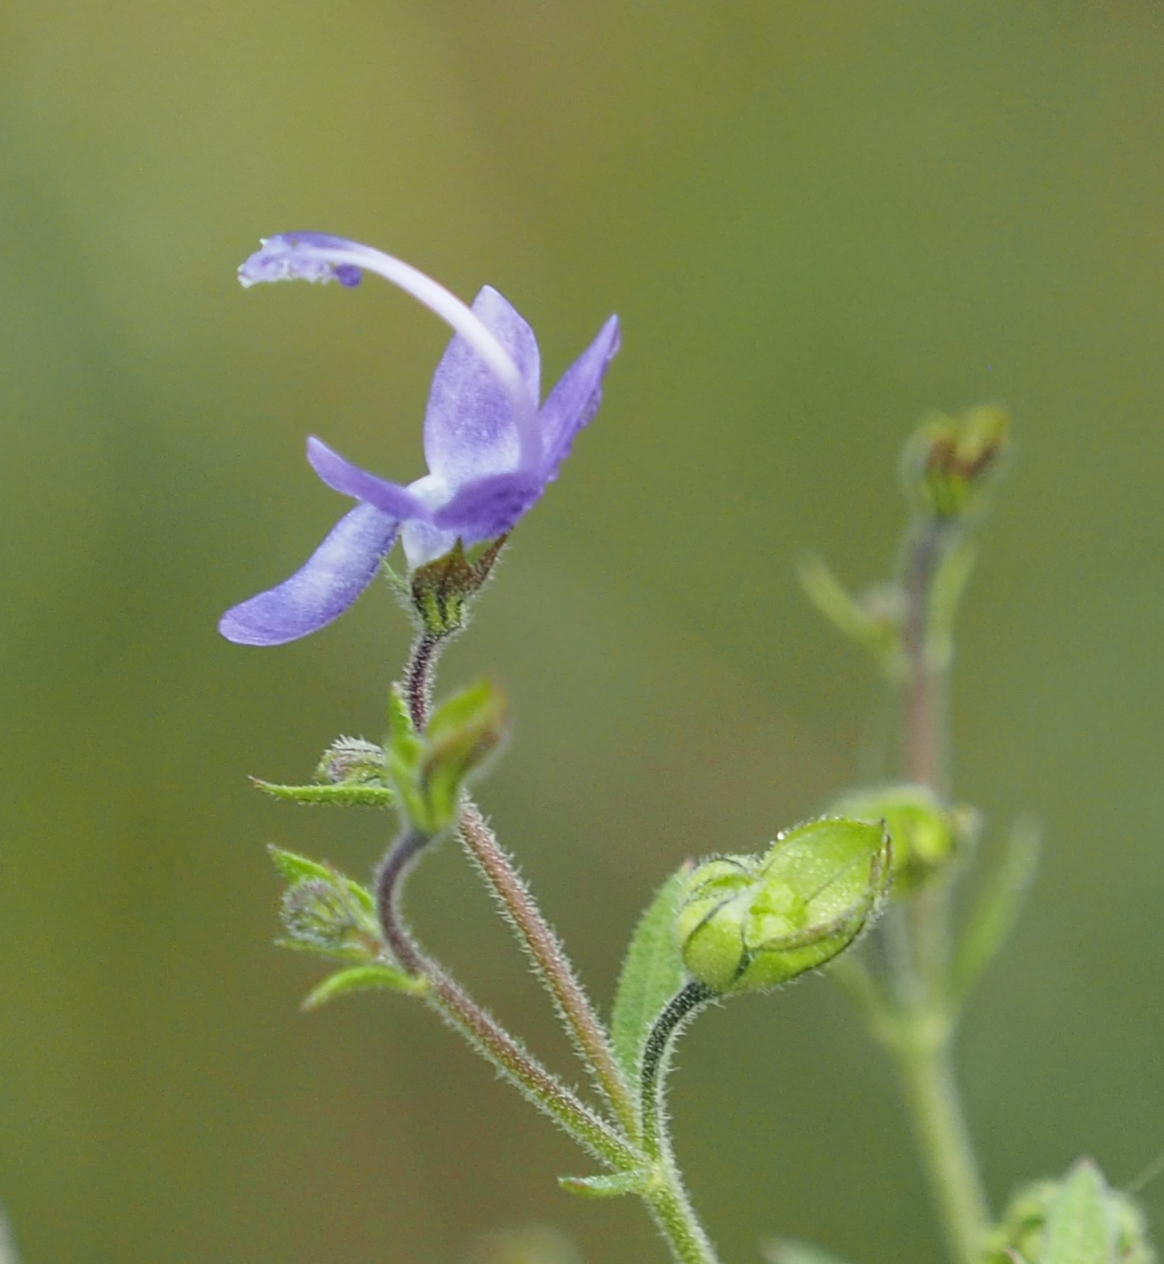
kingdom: Plantae
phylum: Tracheophyta
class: Magnoliopsida
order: Lamiales
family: Lamiaceae
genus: Trichostema
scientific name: Trichostema dichotomum
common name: Bastard pennyroyal
